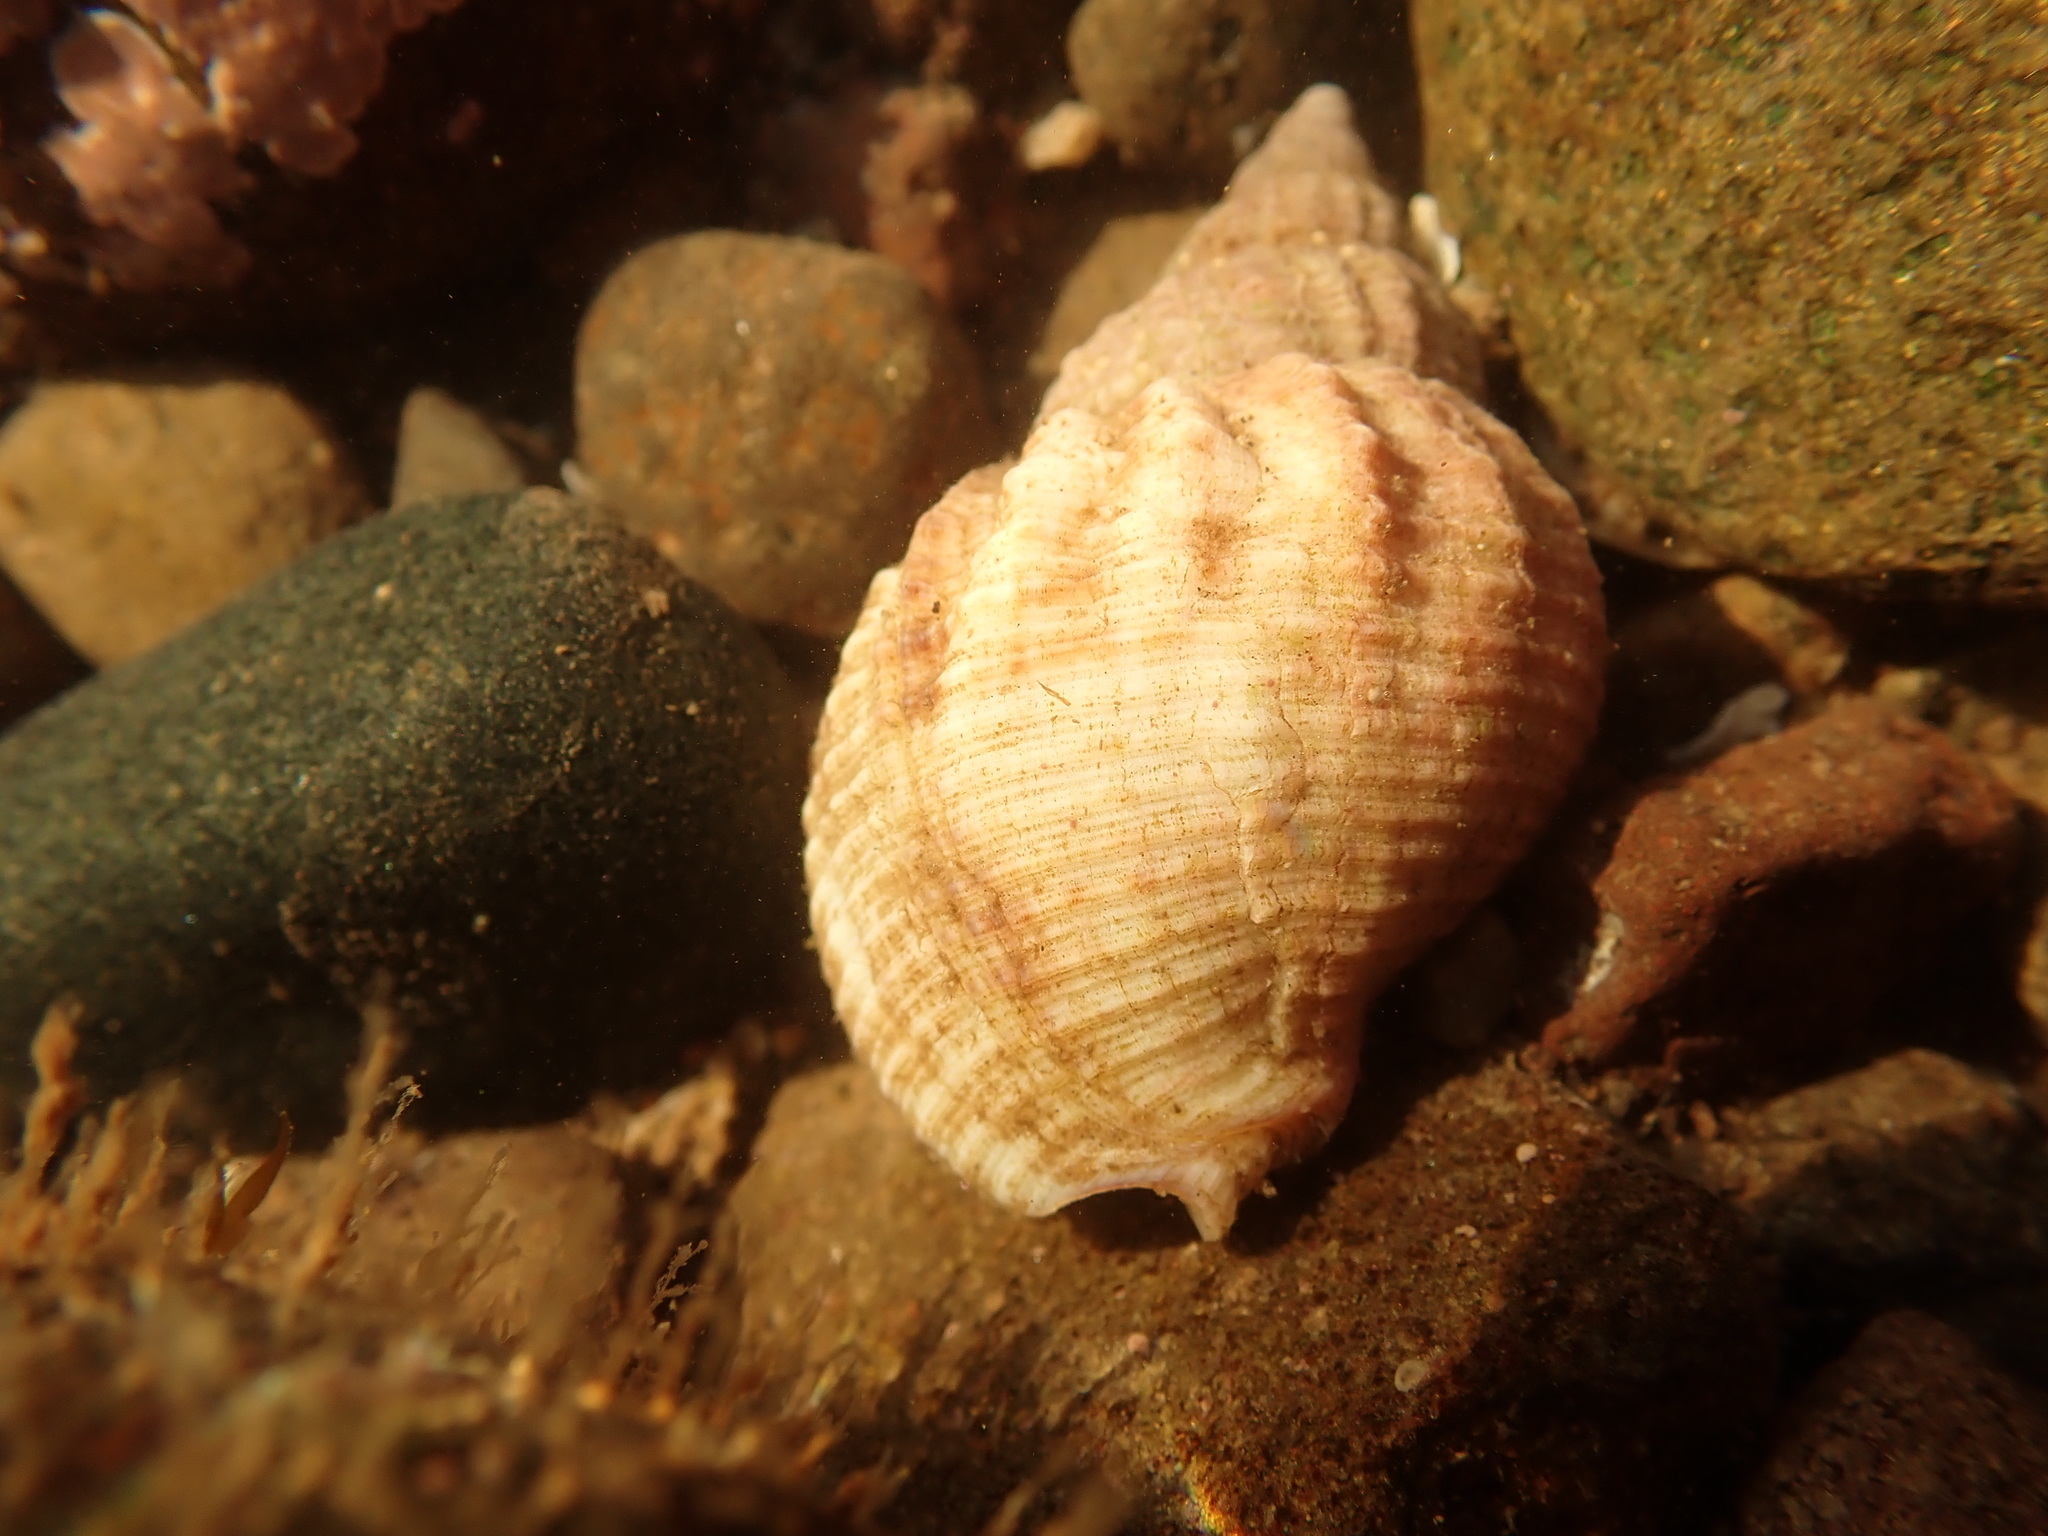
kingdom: Animalia
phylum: Mollusca
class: Gastropoda
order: Neogastropoda
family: Buccinidae
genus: Buccinum
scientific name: Buccinum undatum
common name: Common whelk
